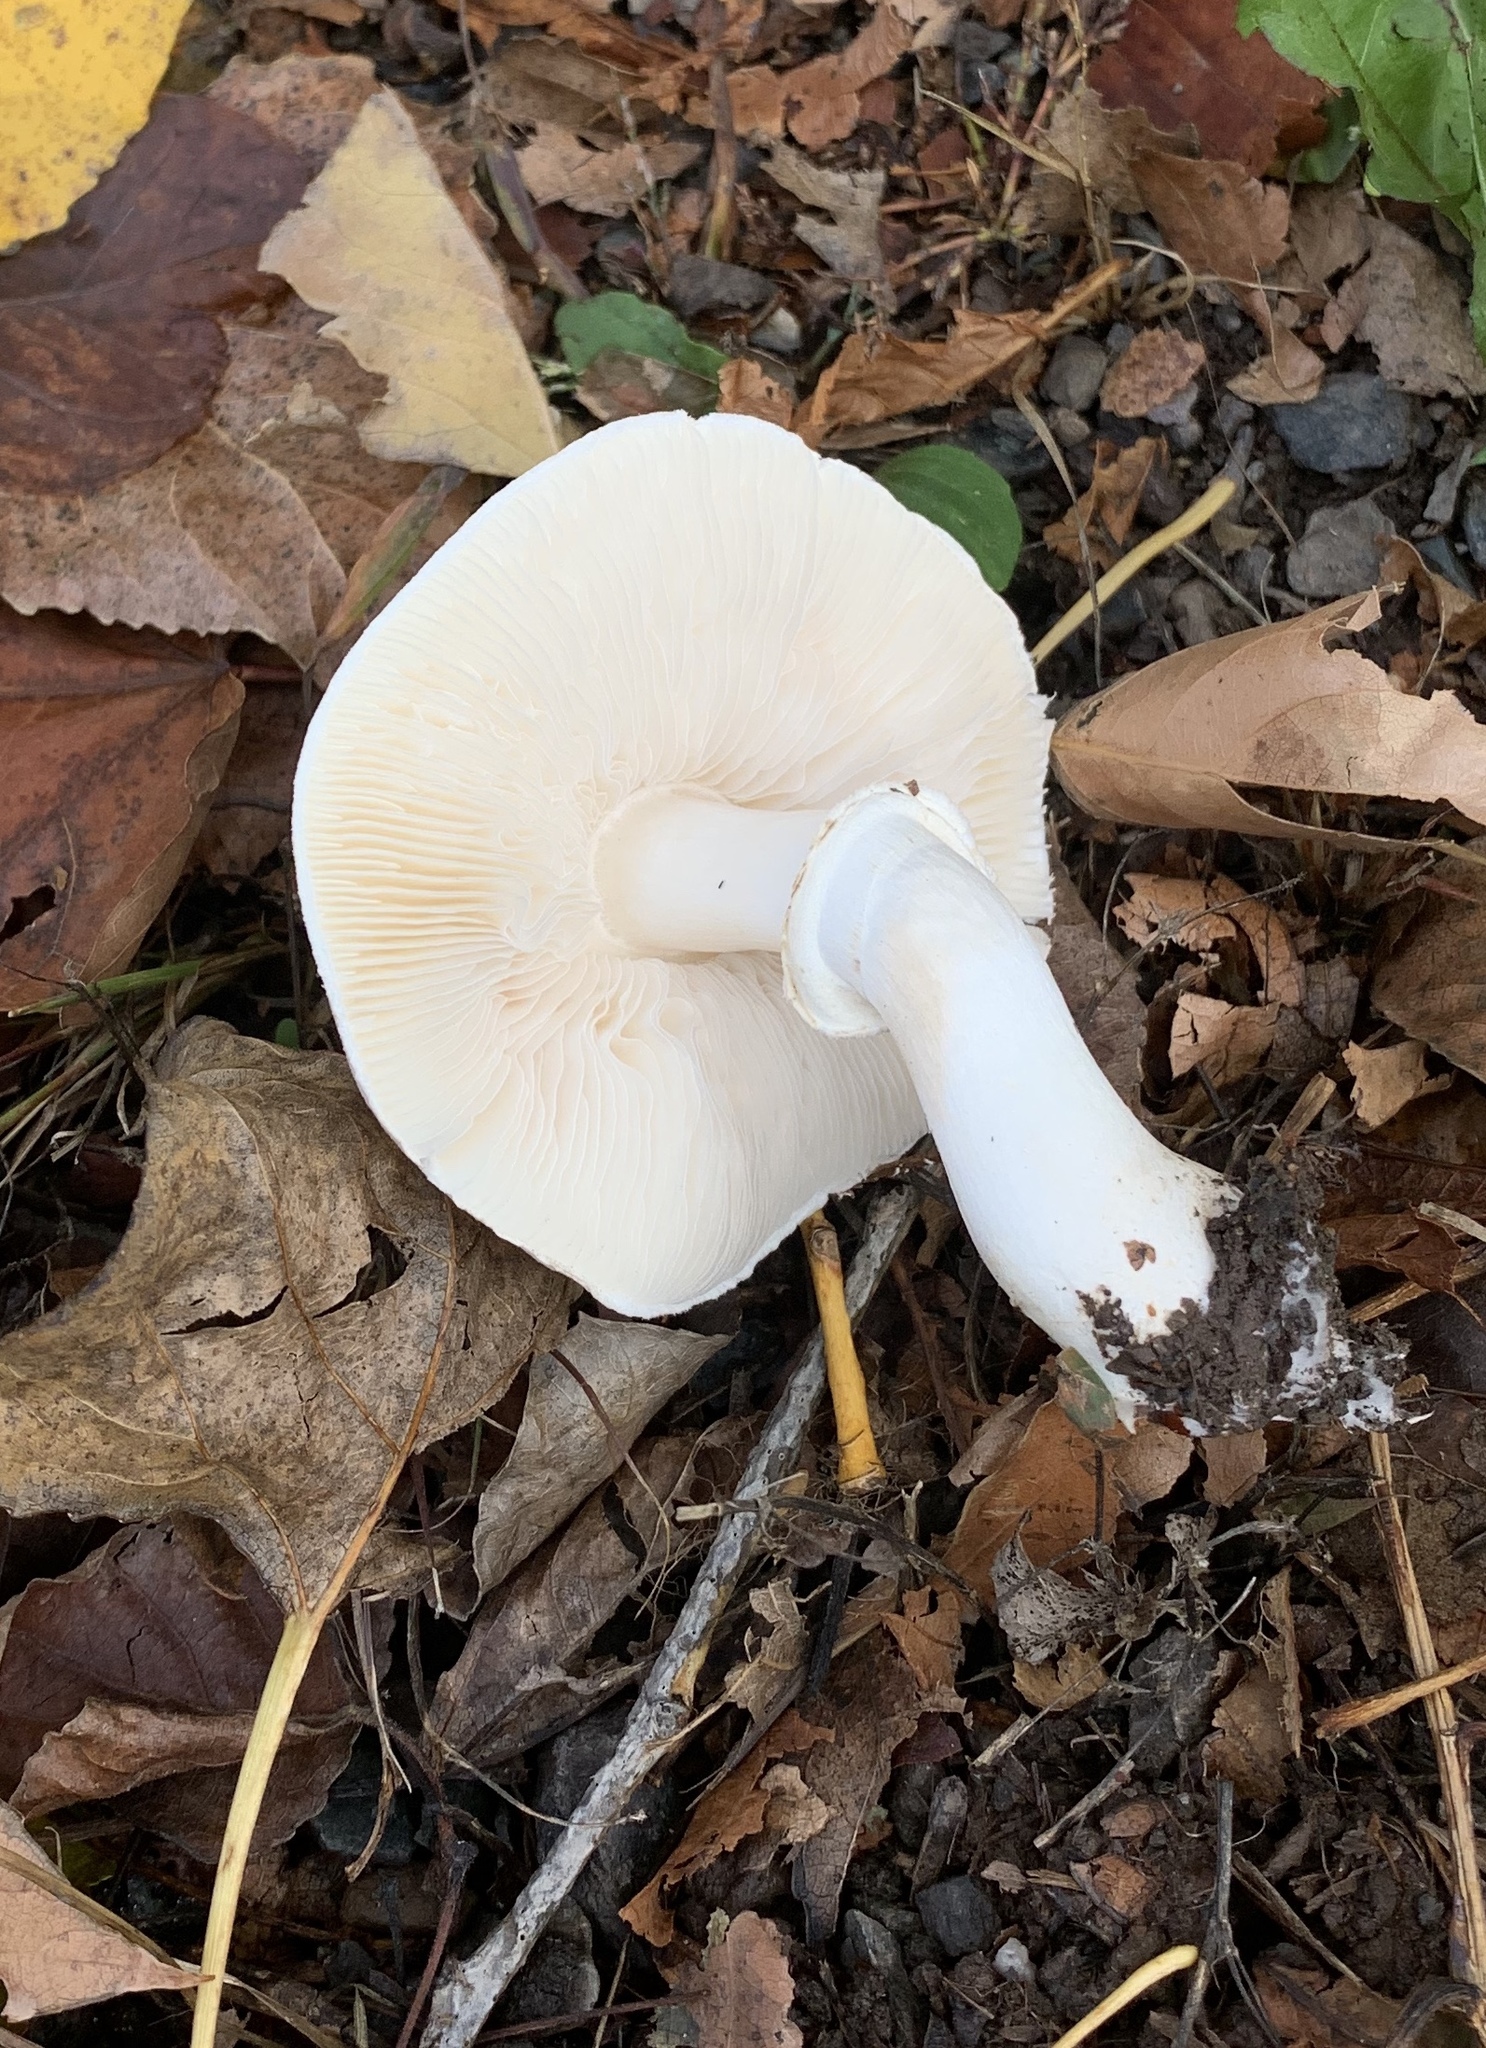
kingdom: Fungi
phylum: Basidiomycota
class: Agaricomycetes
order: Agaricales
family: Agaricaceae
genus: Leucoagaricus
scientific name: Leucoagaricus leucothites
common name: White dapperling
